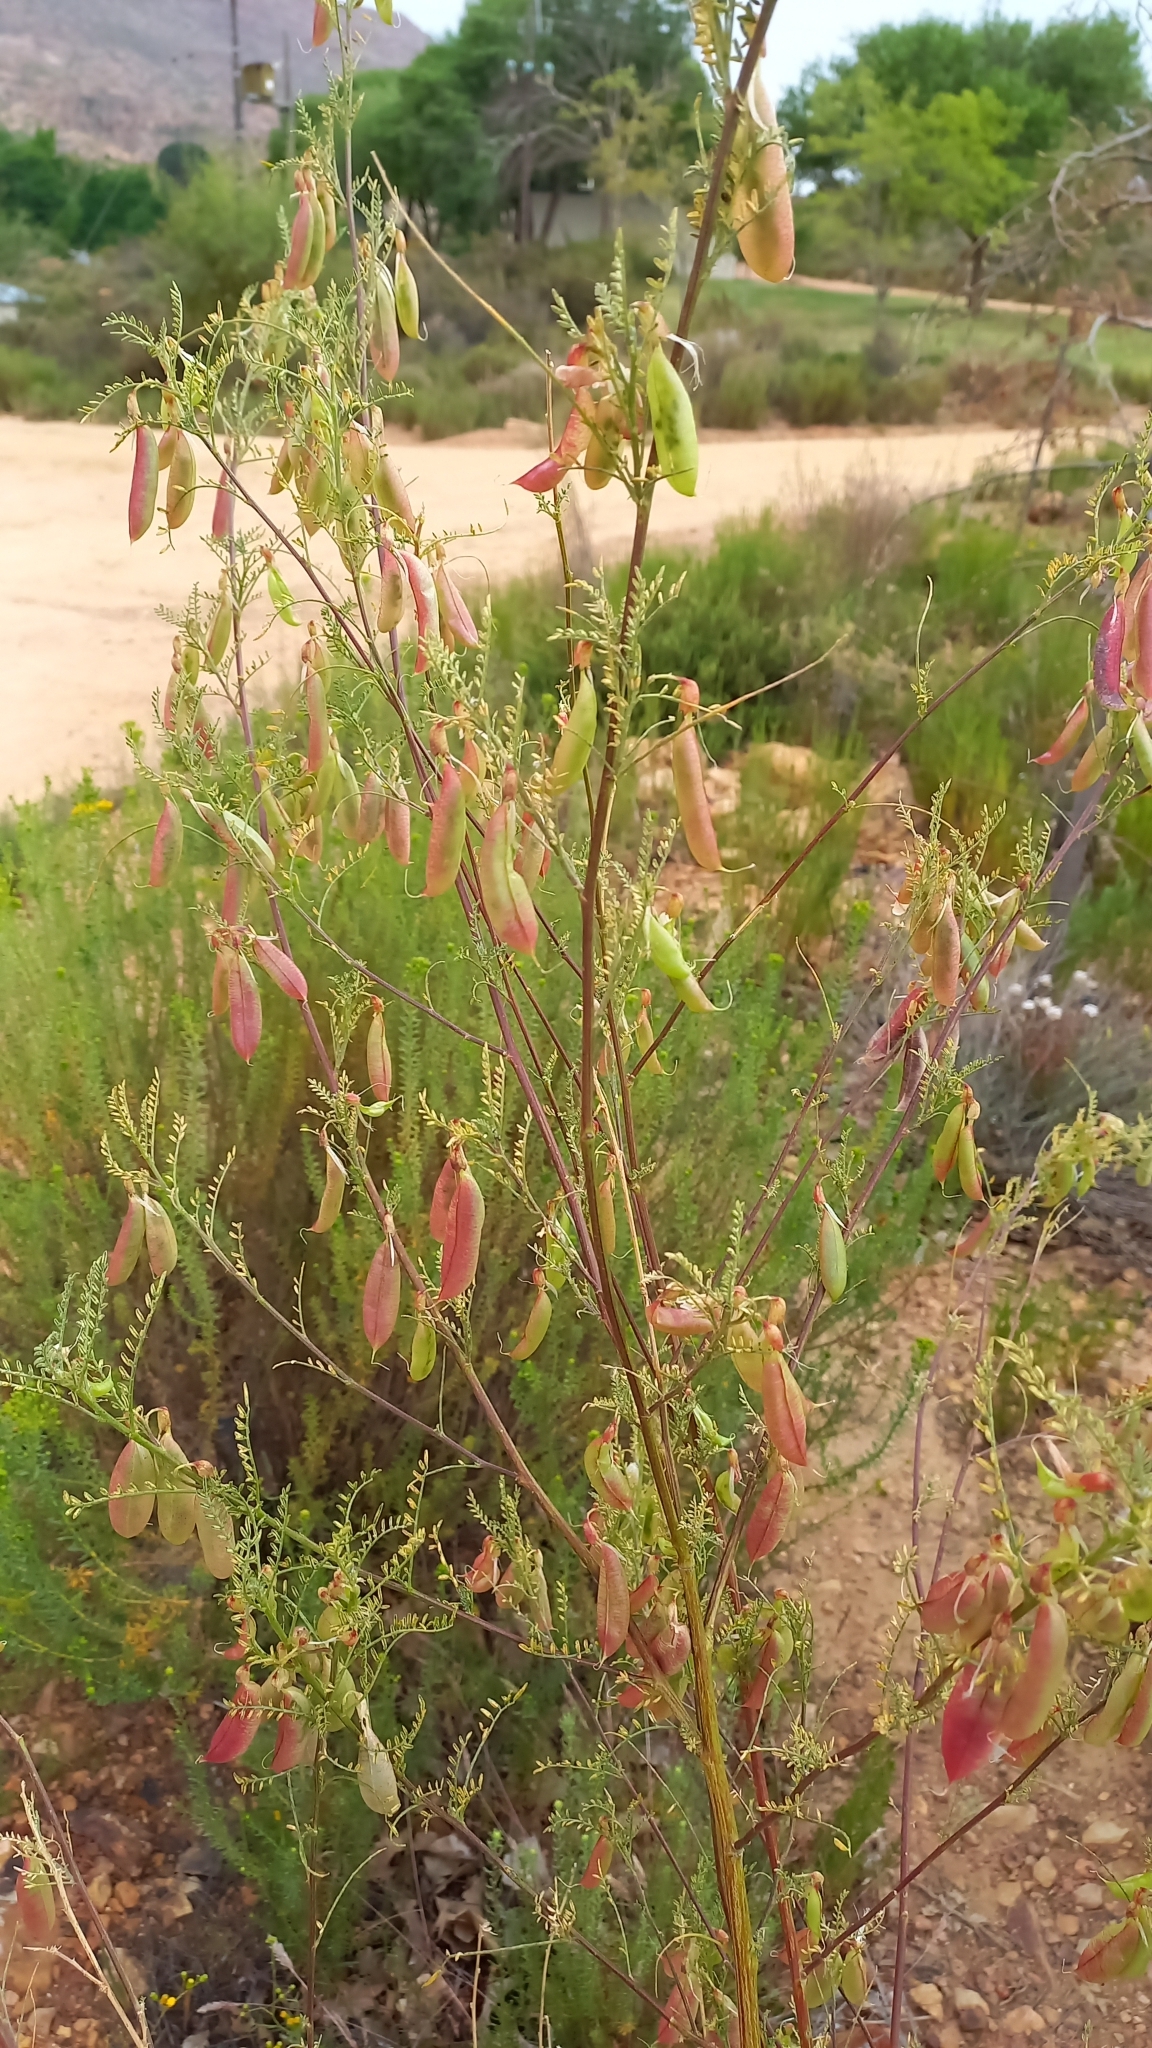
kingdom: Plantae
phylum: Tracheophyta
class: Magnoliopsida
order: Fabales
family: Fabaceae
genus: Lessertia
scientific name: Lessertia frutescens
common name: Balloon-pea
